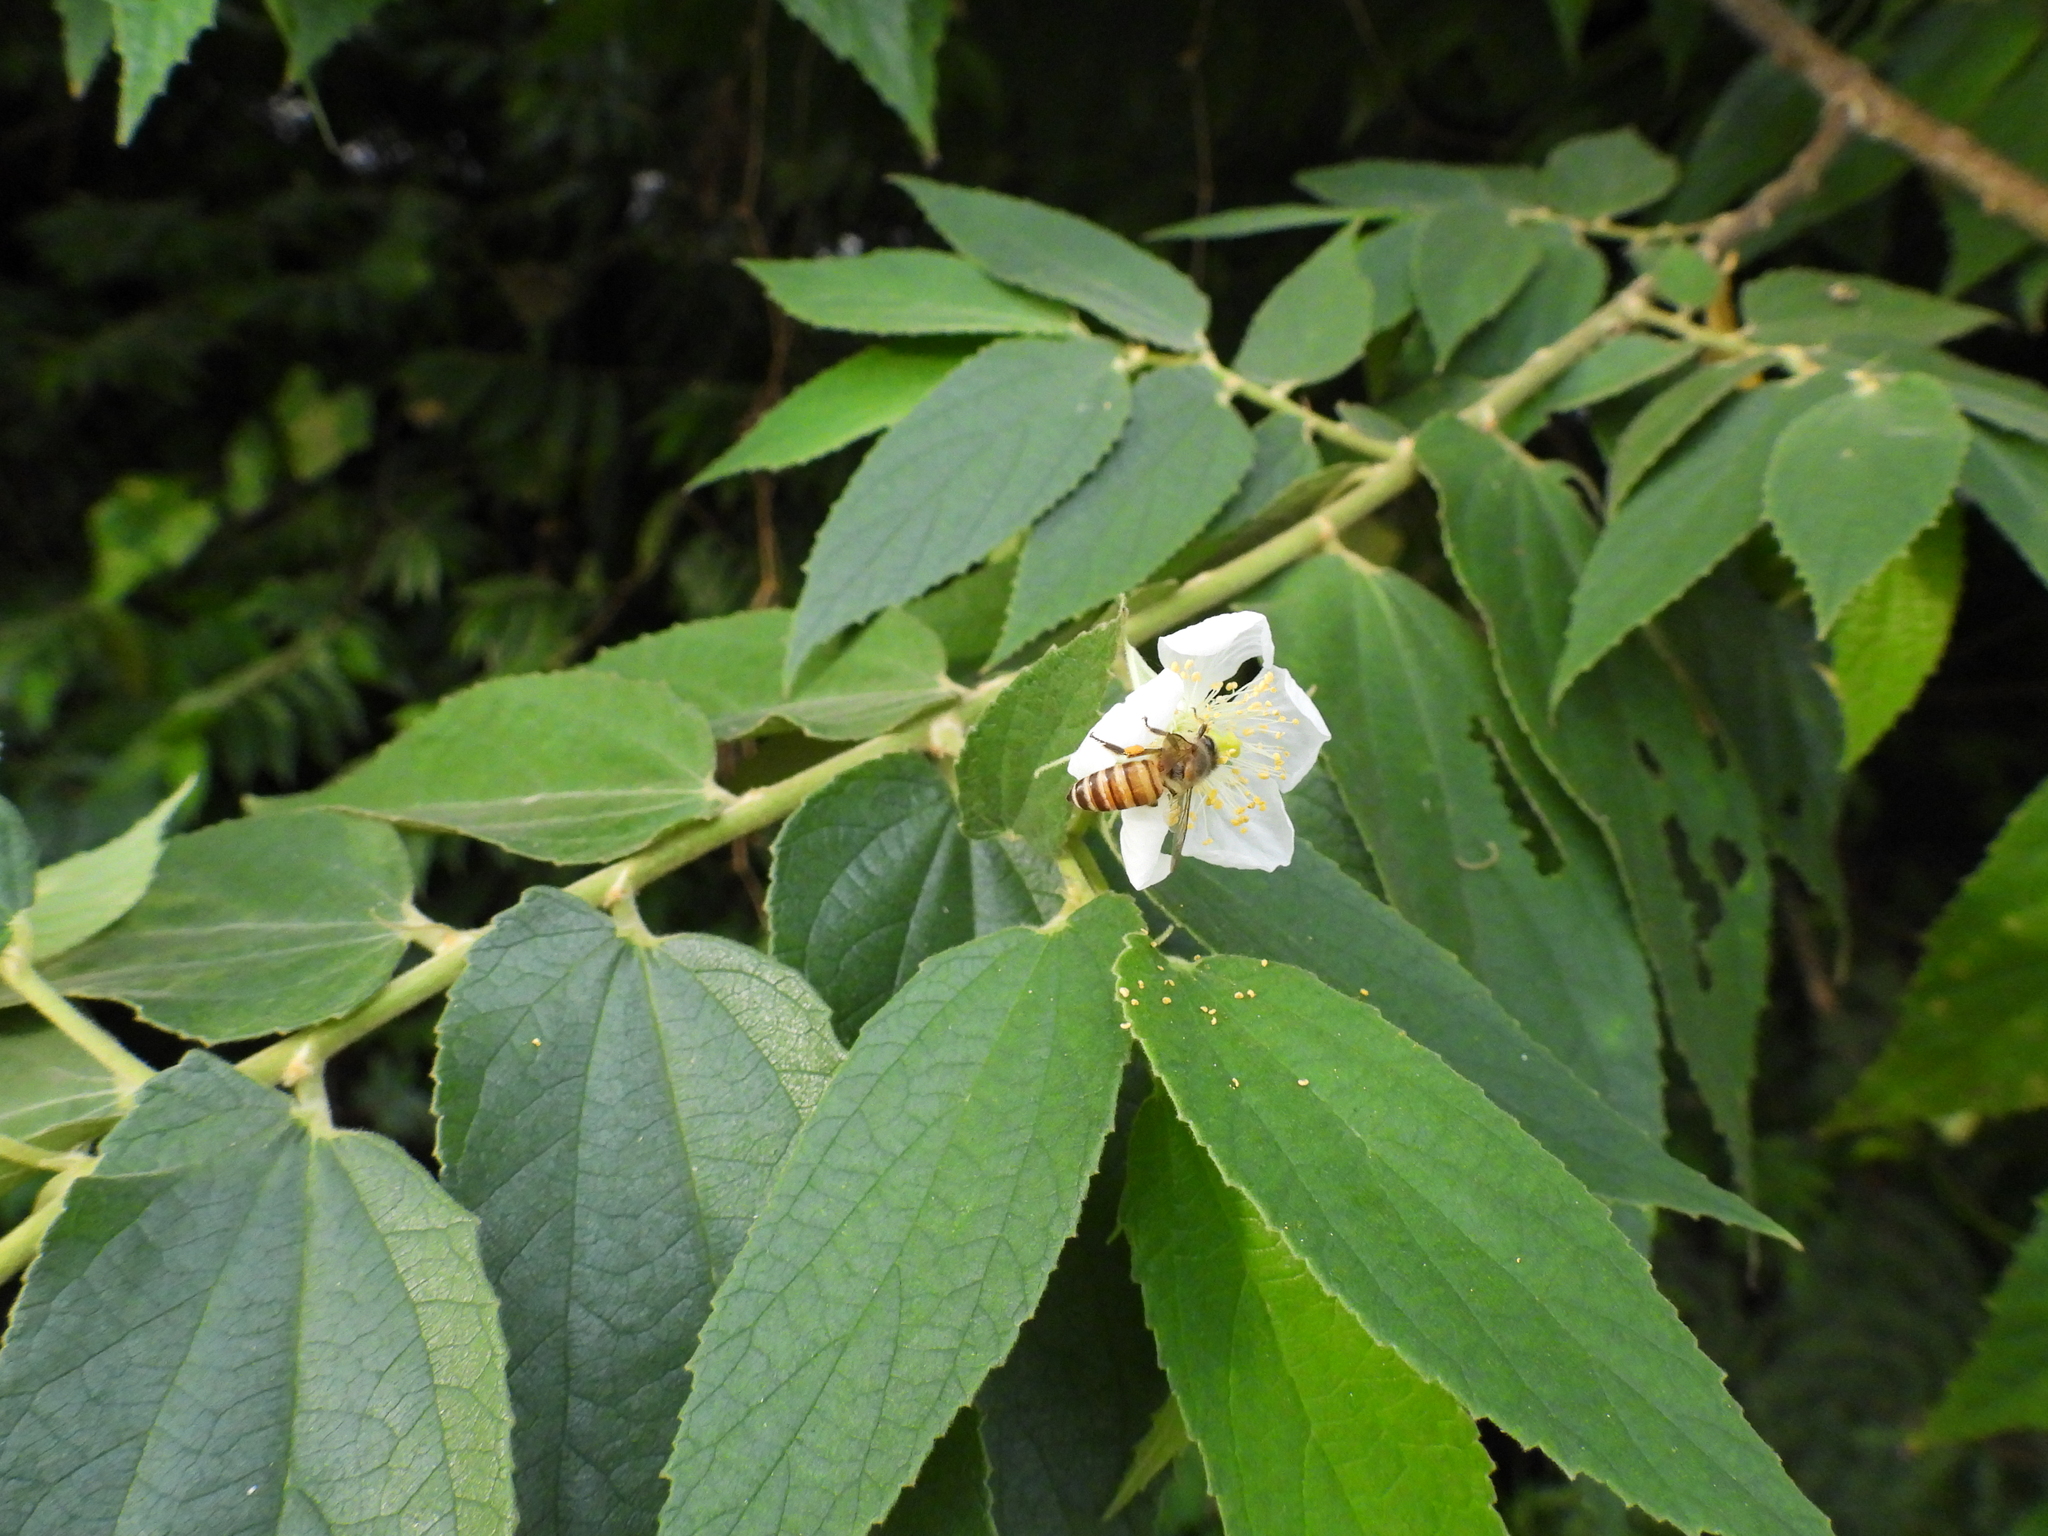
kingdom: Animalia
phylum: Arthropoda
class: Insecta
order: Hymenoptera
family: Apidae
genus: Apis
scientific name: Apis cerana
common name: Honey bee
